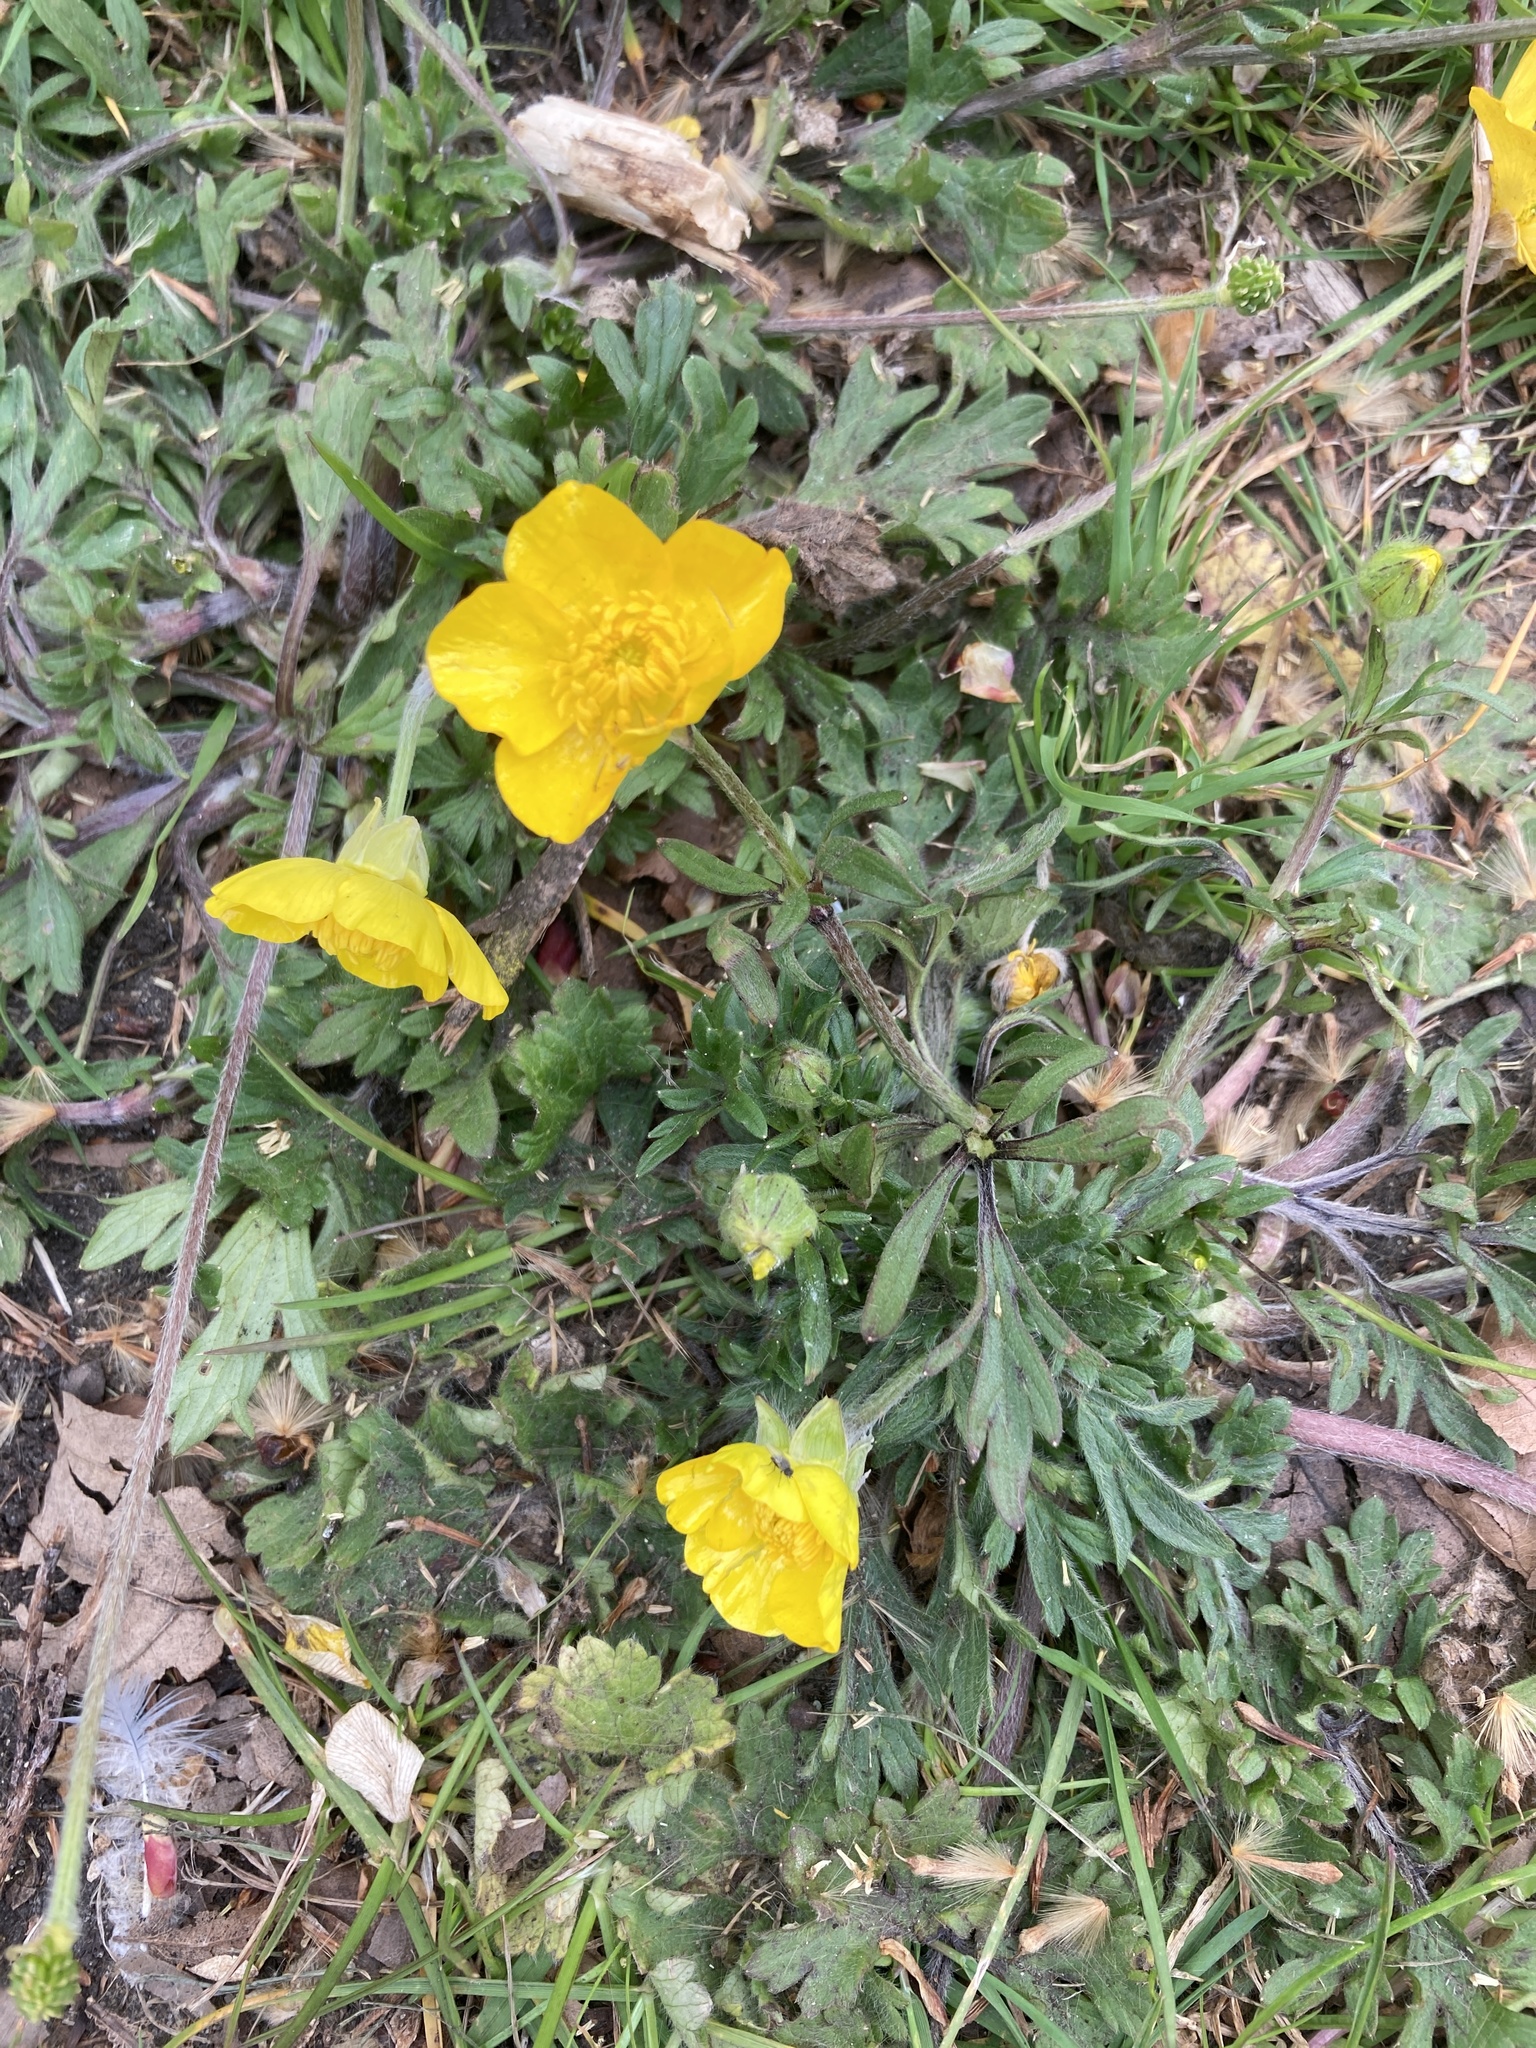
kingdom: Plantae
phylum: Tracheophyta
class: Magnoliopsida
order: Ranunculales
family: Ranunculaceae
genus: Ranunculus
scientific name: Ranunculus bulbosus
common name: Bulbous buttercup
